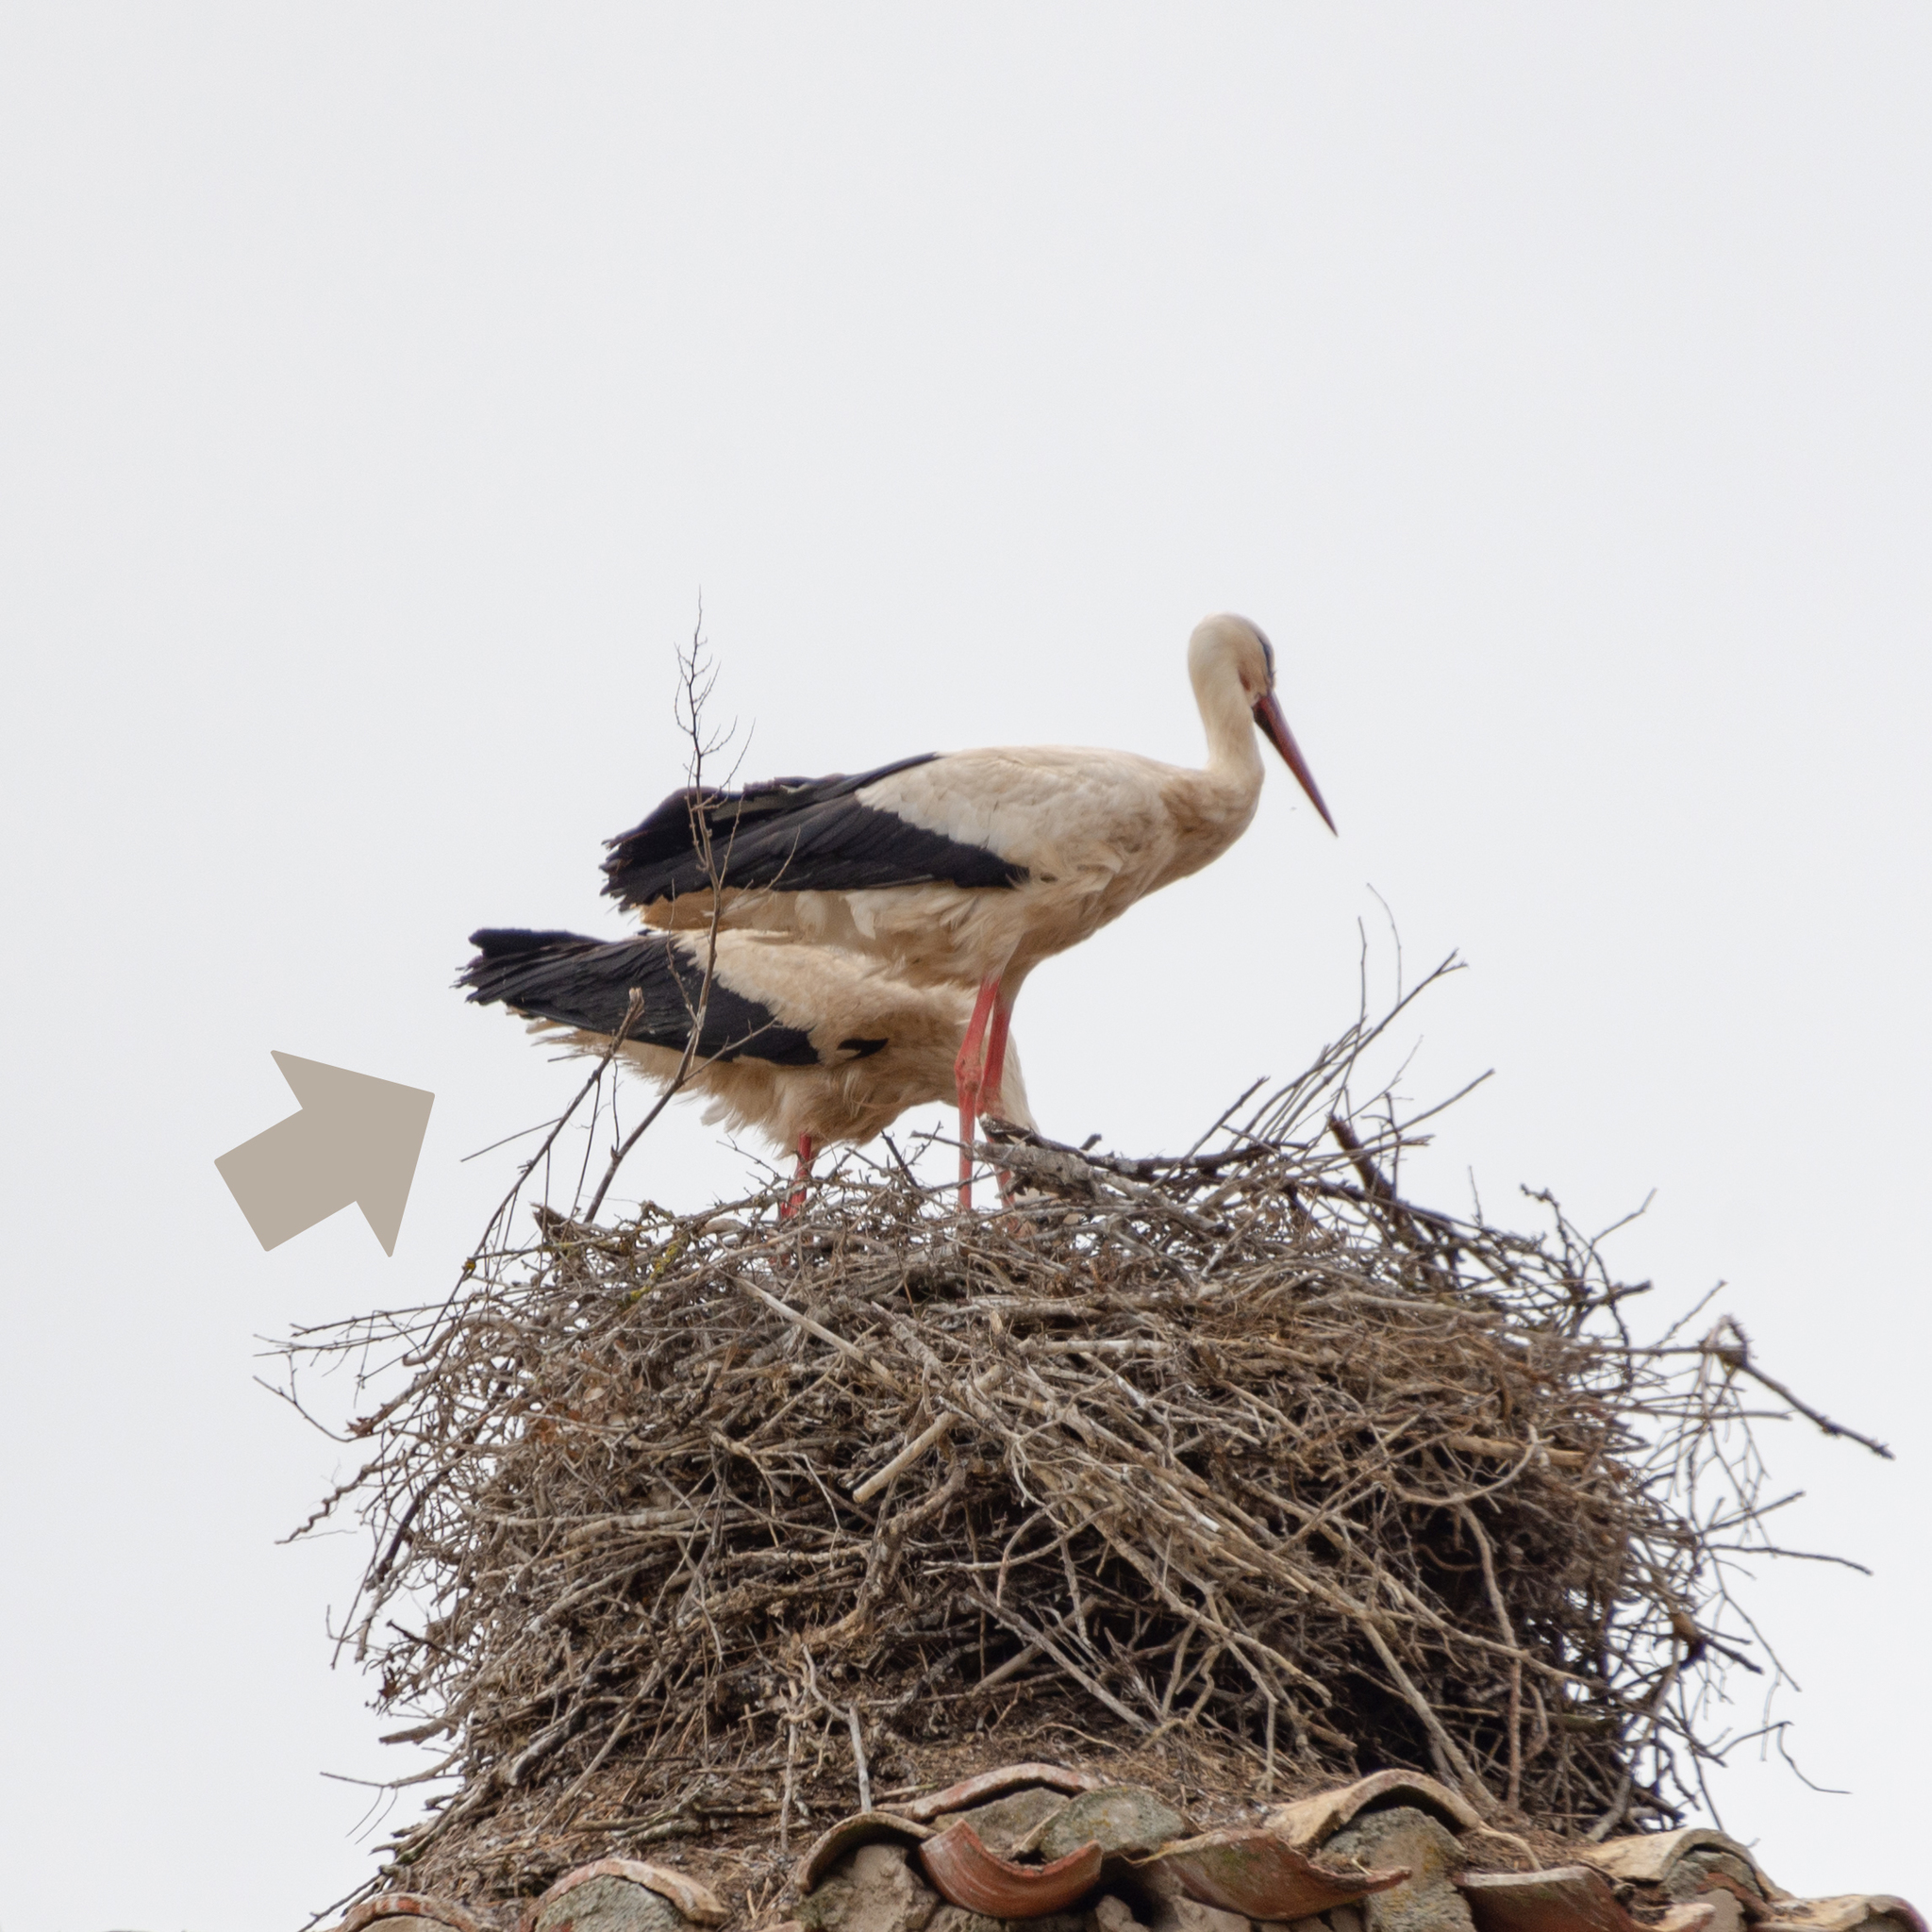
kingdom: Animalia
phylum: Chordata
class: Aves
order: Ciconiiformes
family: Ciconiidae
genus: Ciconia
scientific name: Ciconia ciconia
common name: White stork
